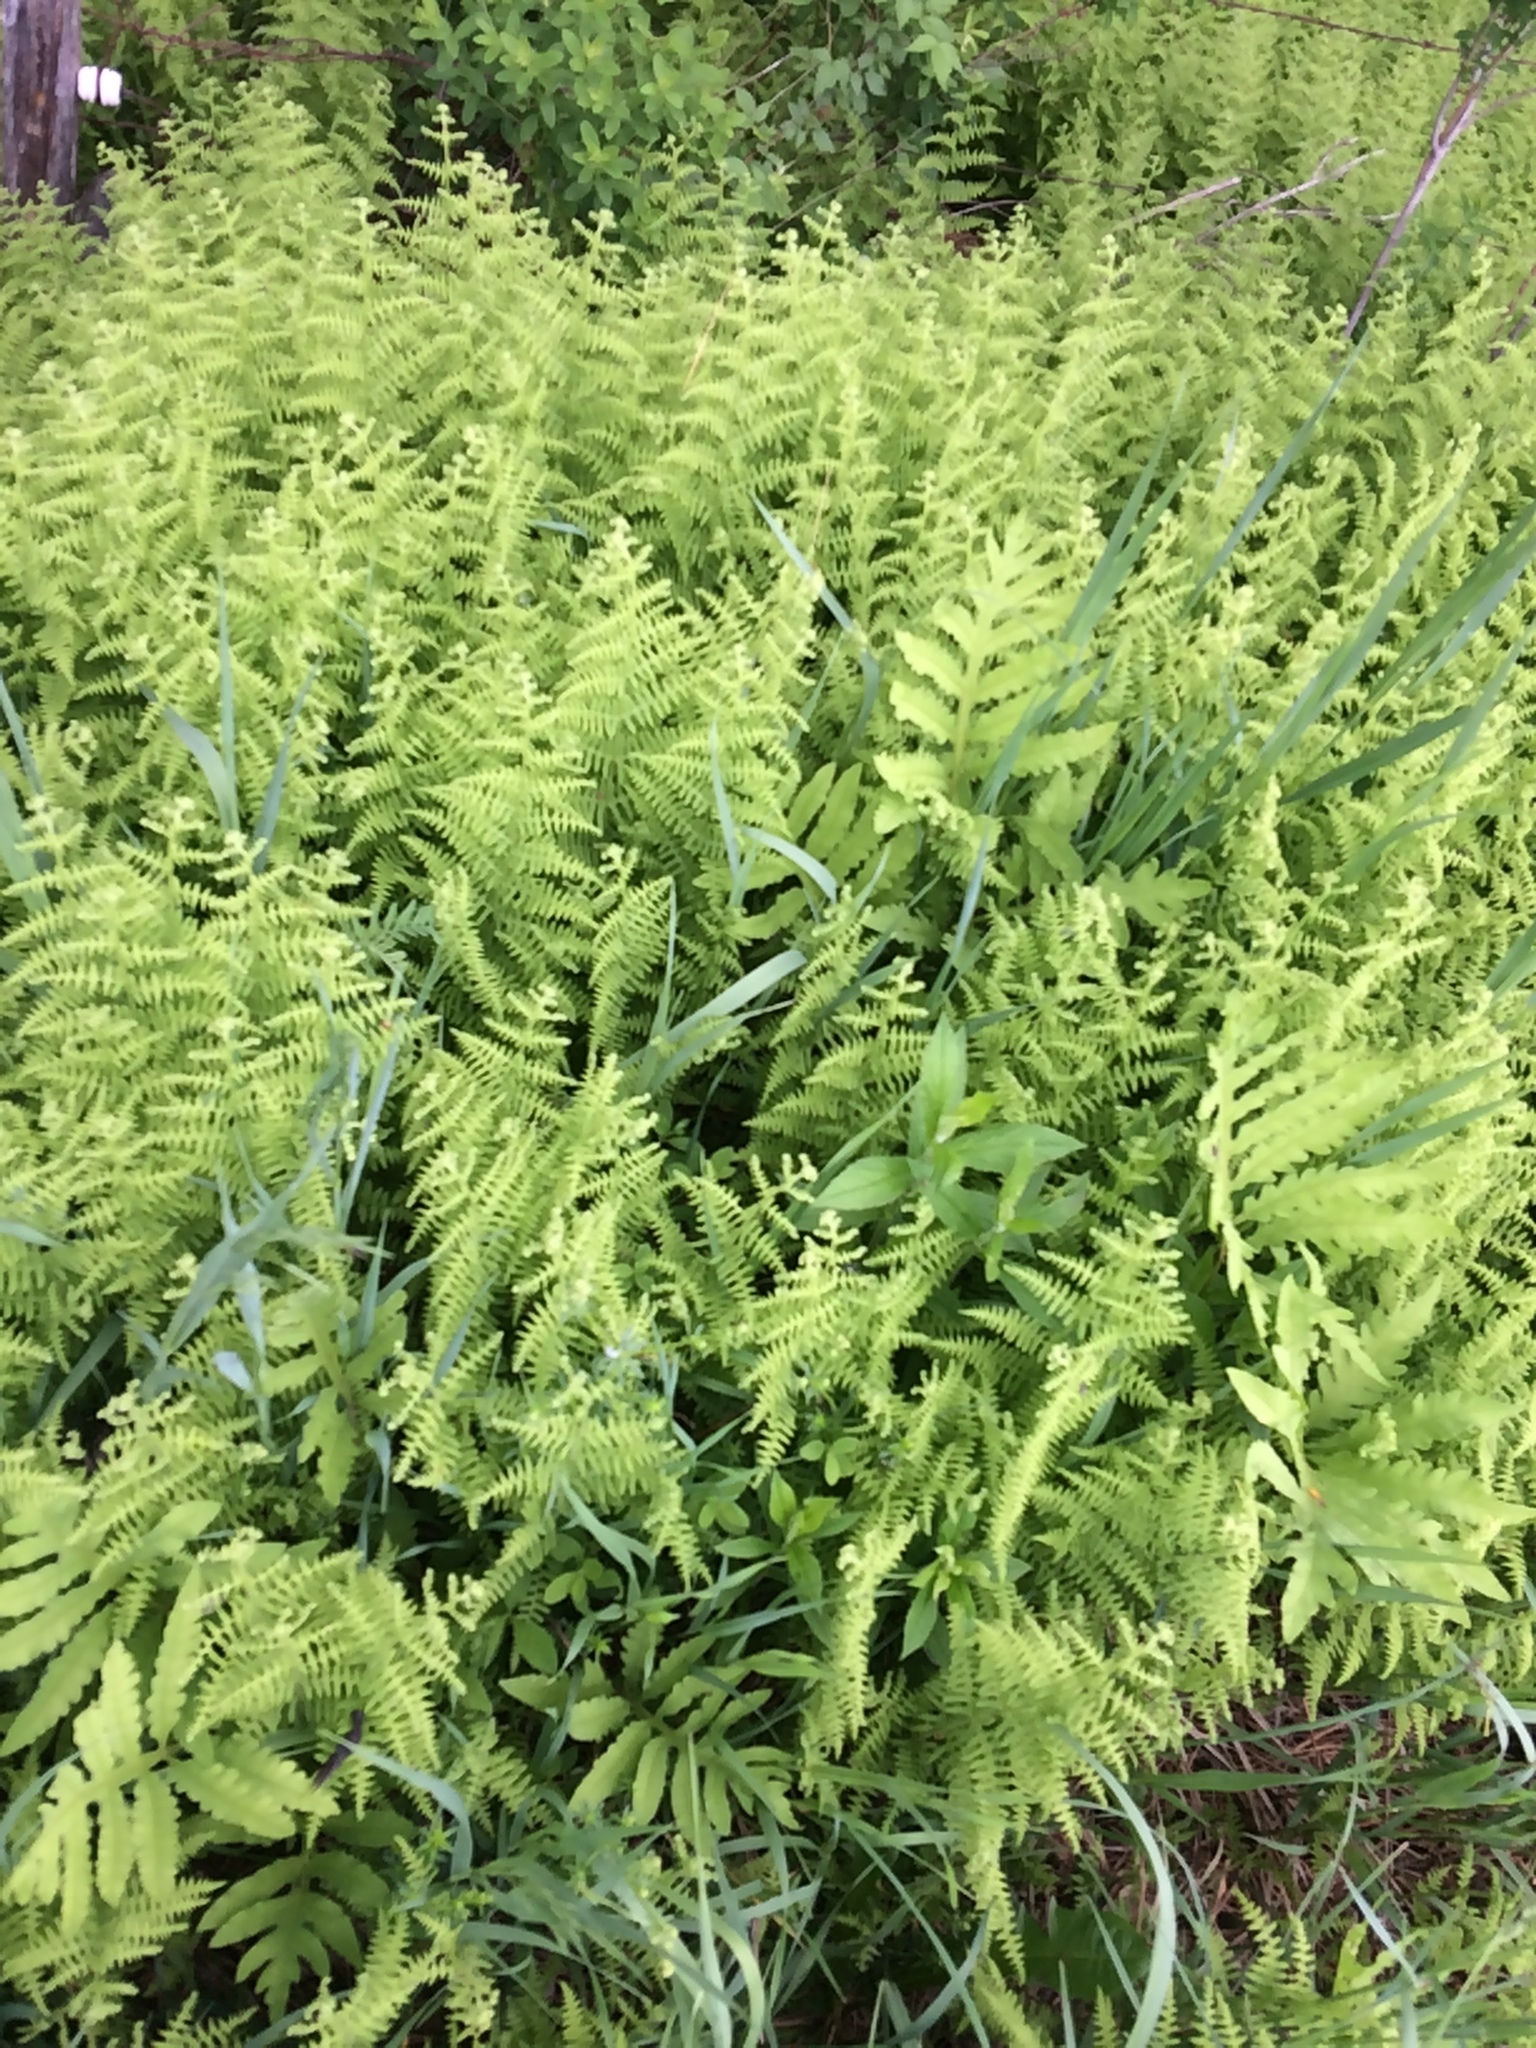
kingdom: Plantae
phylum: Tracheophyta
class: Polypodiopsida
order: Polypodiales
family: Dennstaedtiaceae
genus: Sitobolium
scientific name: Sitobolium punctilobum
